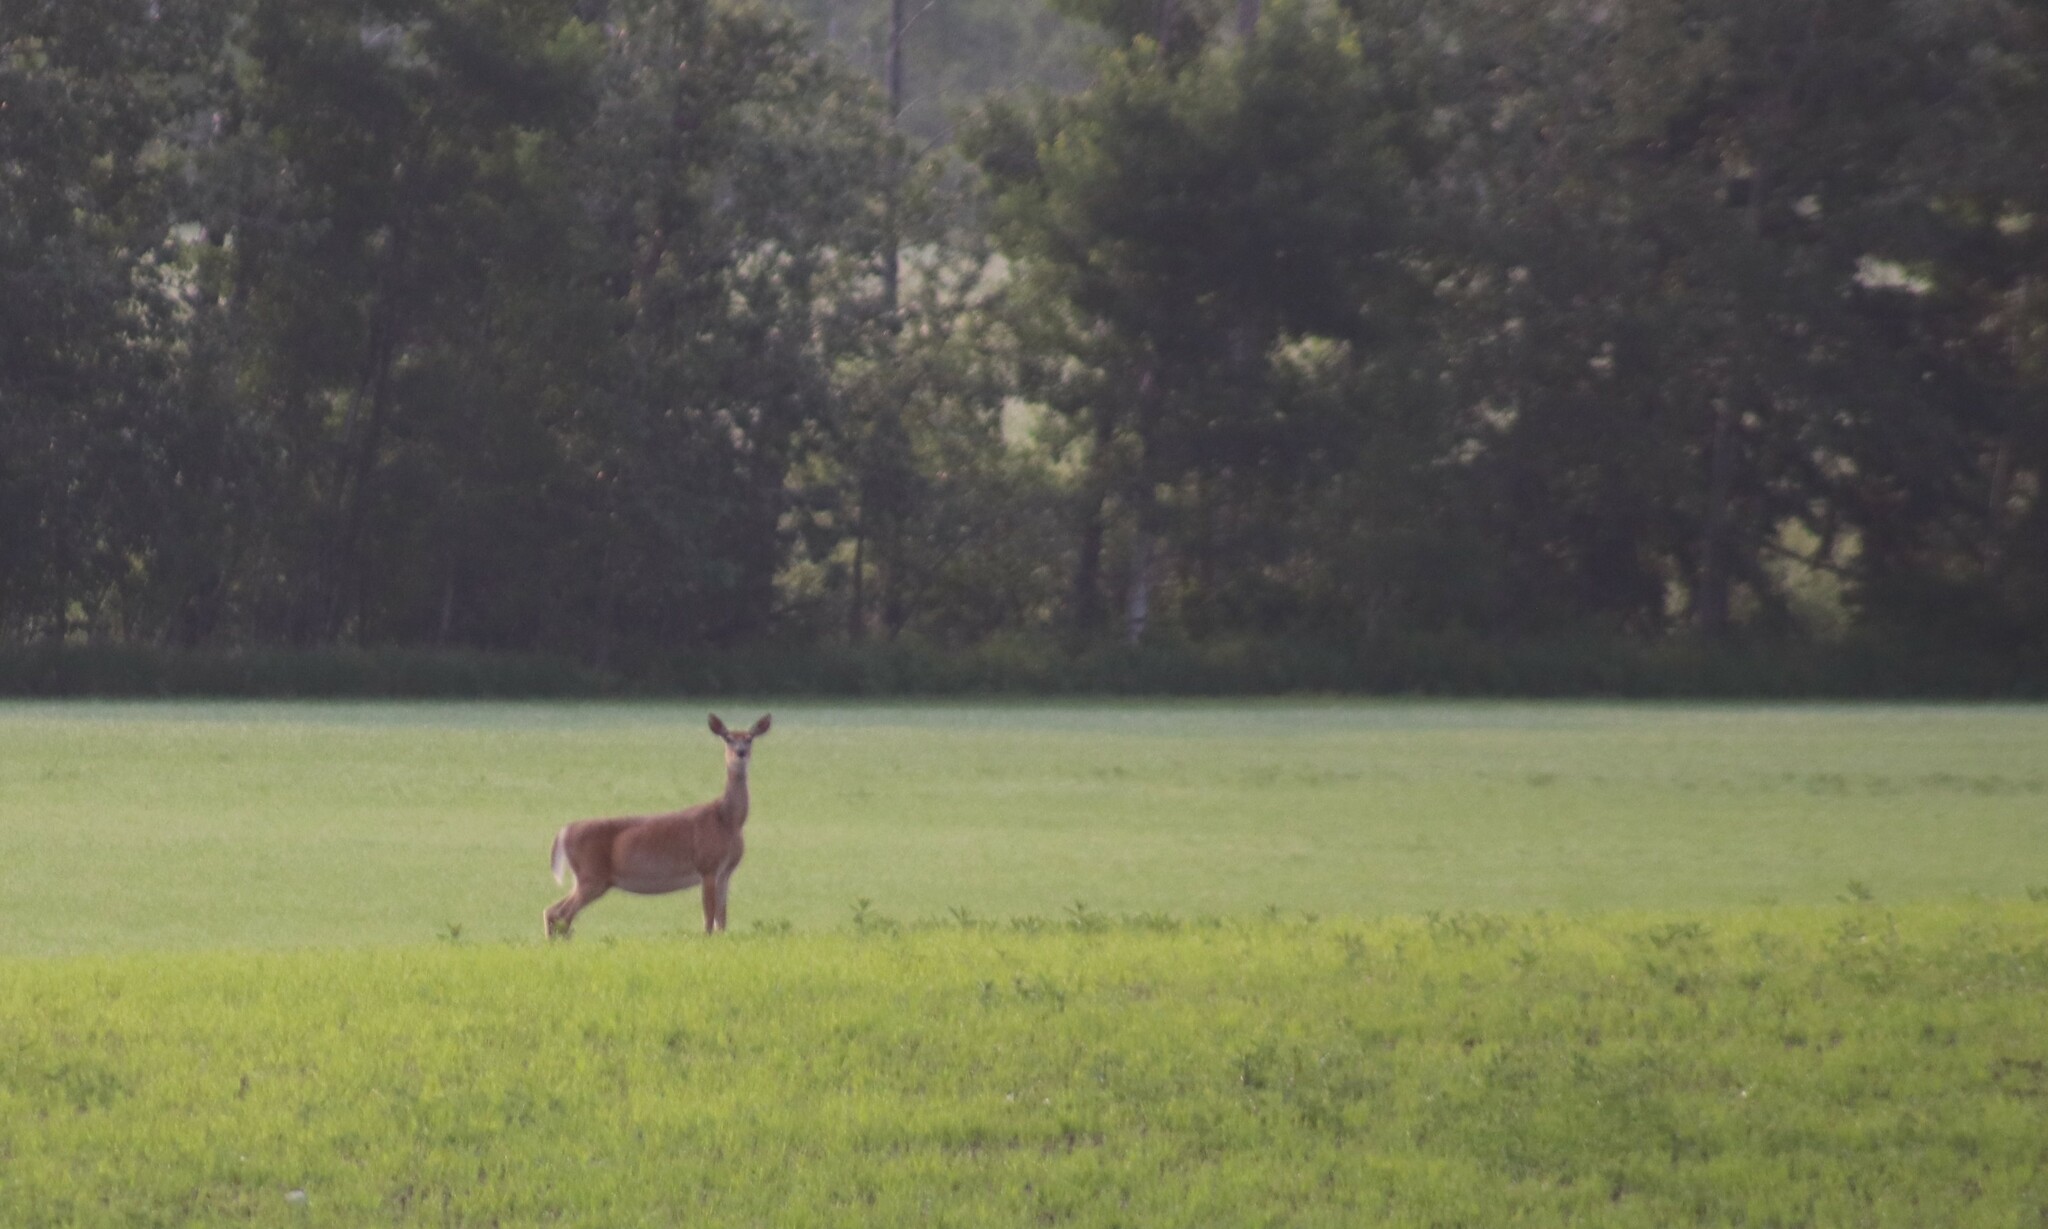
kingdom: Animalia
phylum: Chordata
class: Mammalia
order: Artiodactyla
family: Cervidae
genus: Odocoileus
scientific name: Odocoileus virginianus
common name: White-tailed deer
